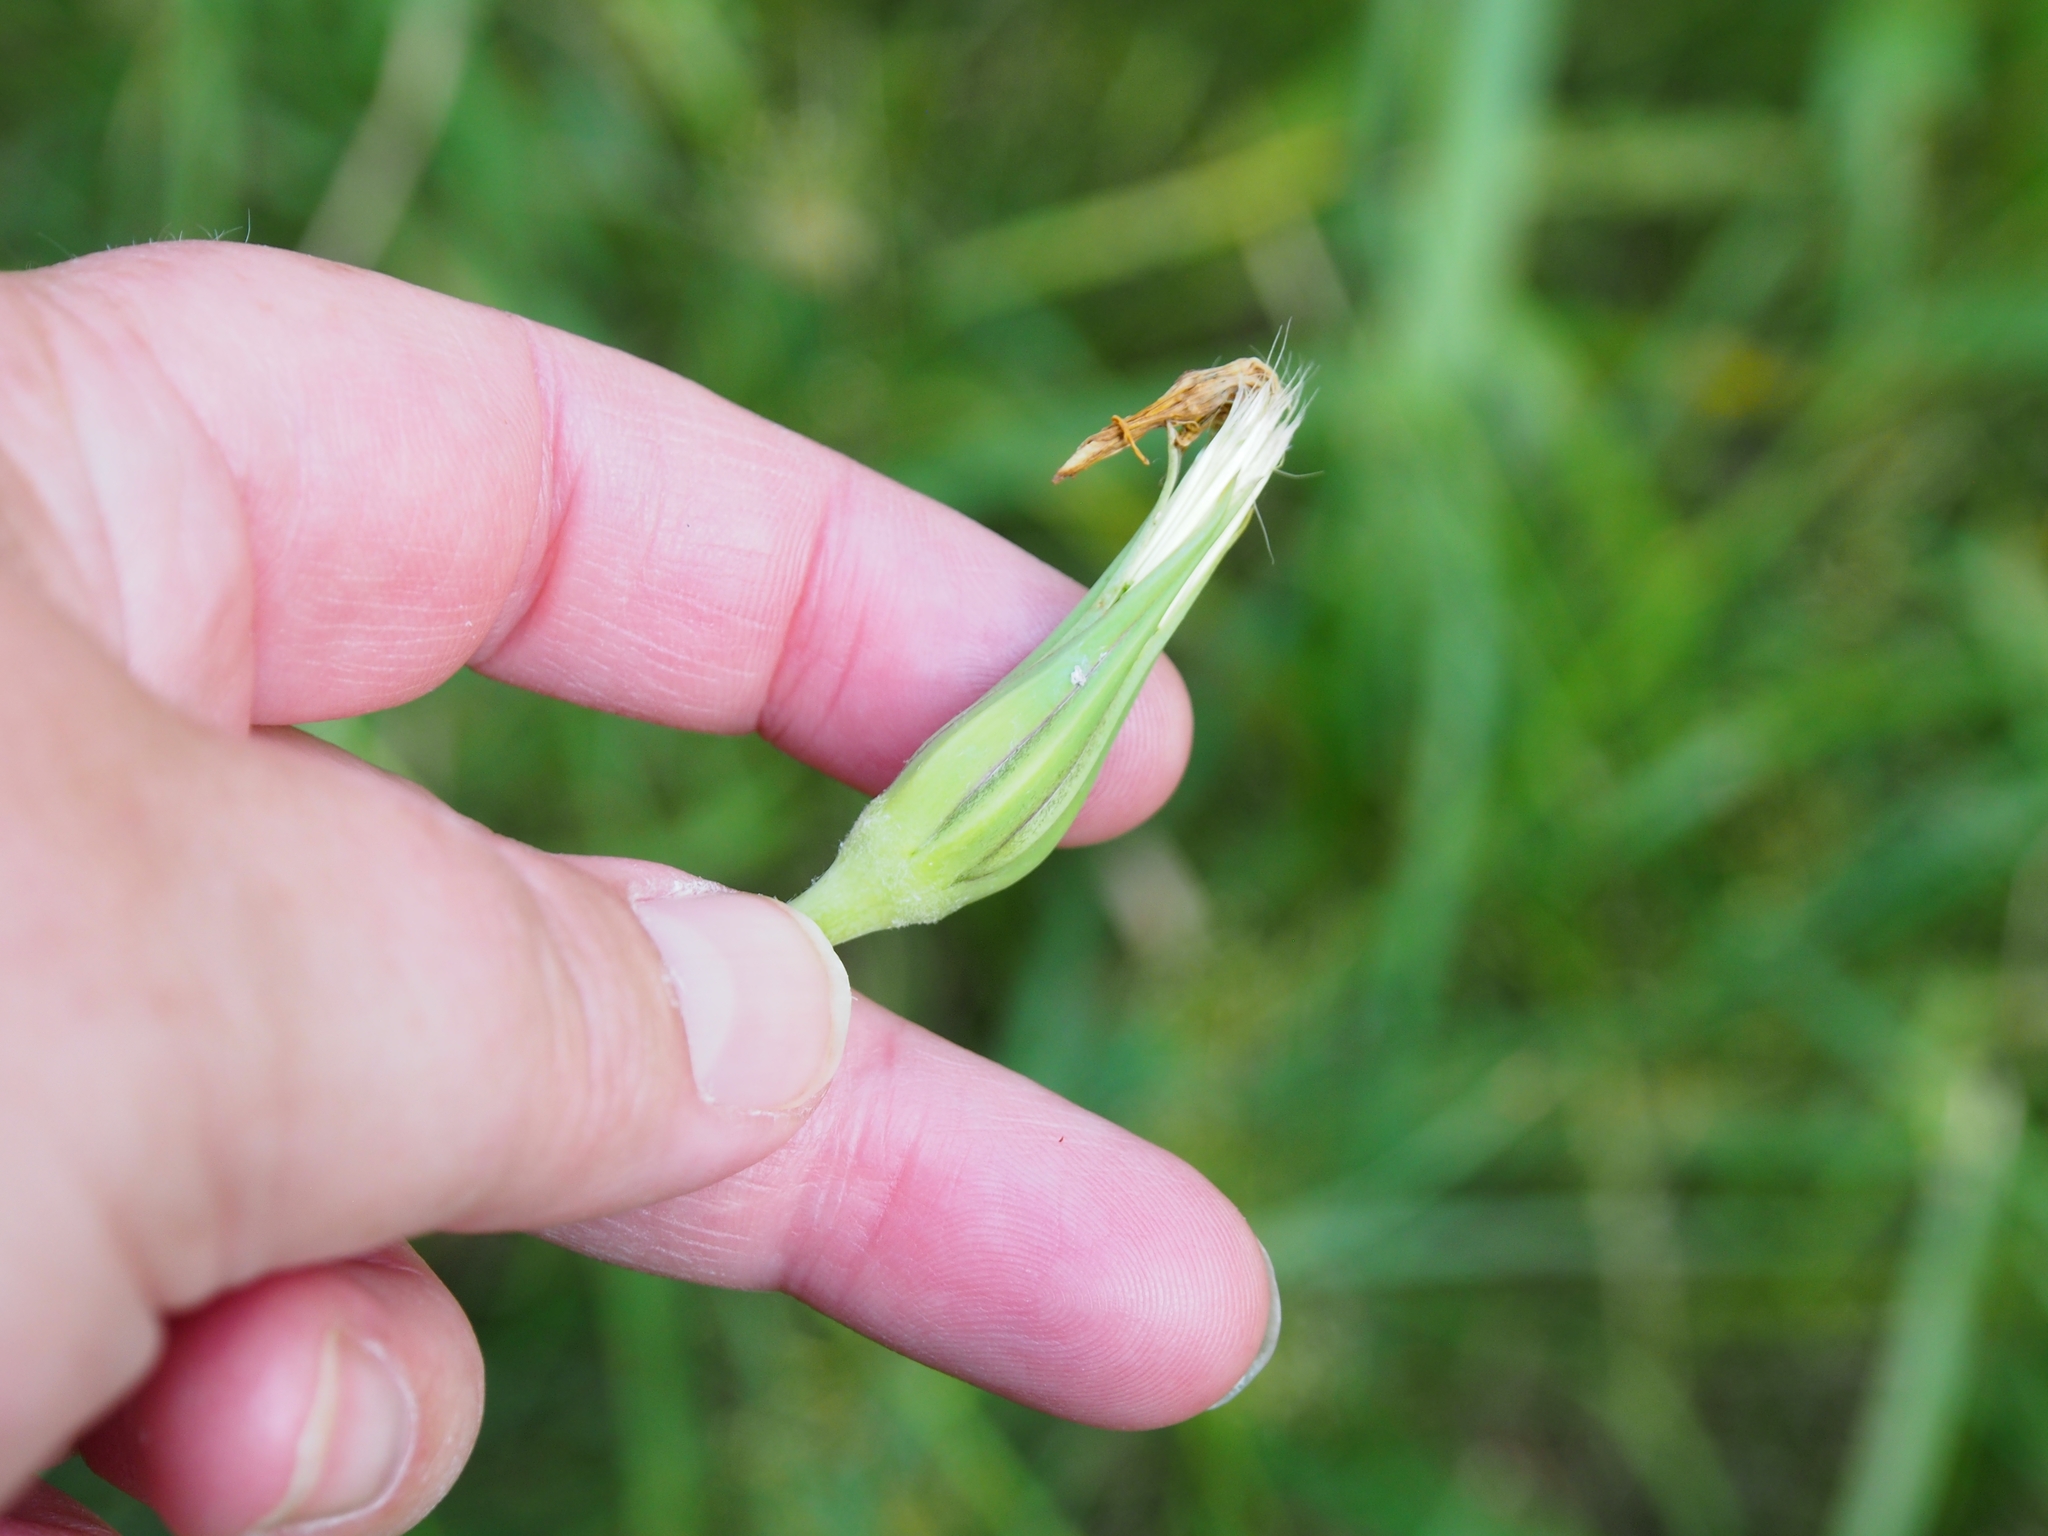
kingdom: Plantae
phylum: Tracheophyta
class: Magnoliopsida
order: Asterales
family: Asteraceae
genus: Tragopogon
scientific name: Tragopogon pratensis
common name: Goat's-beard
